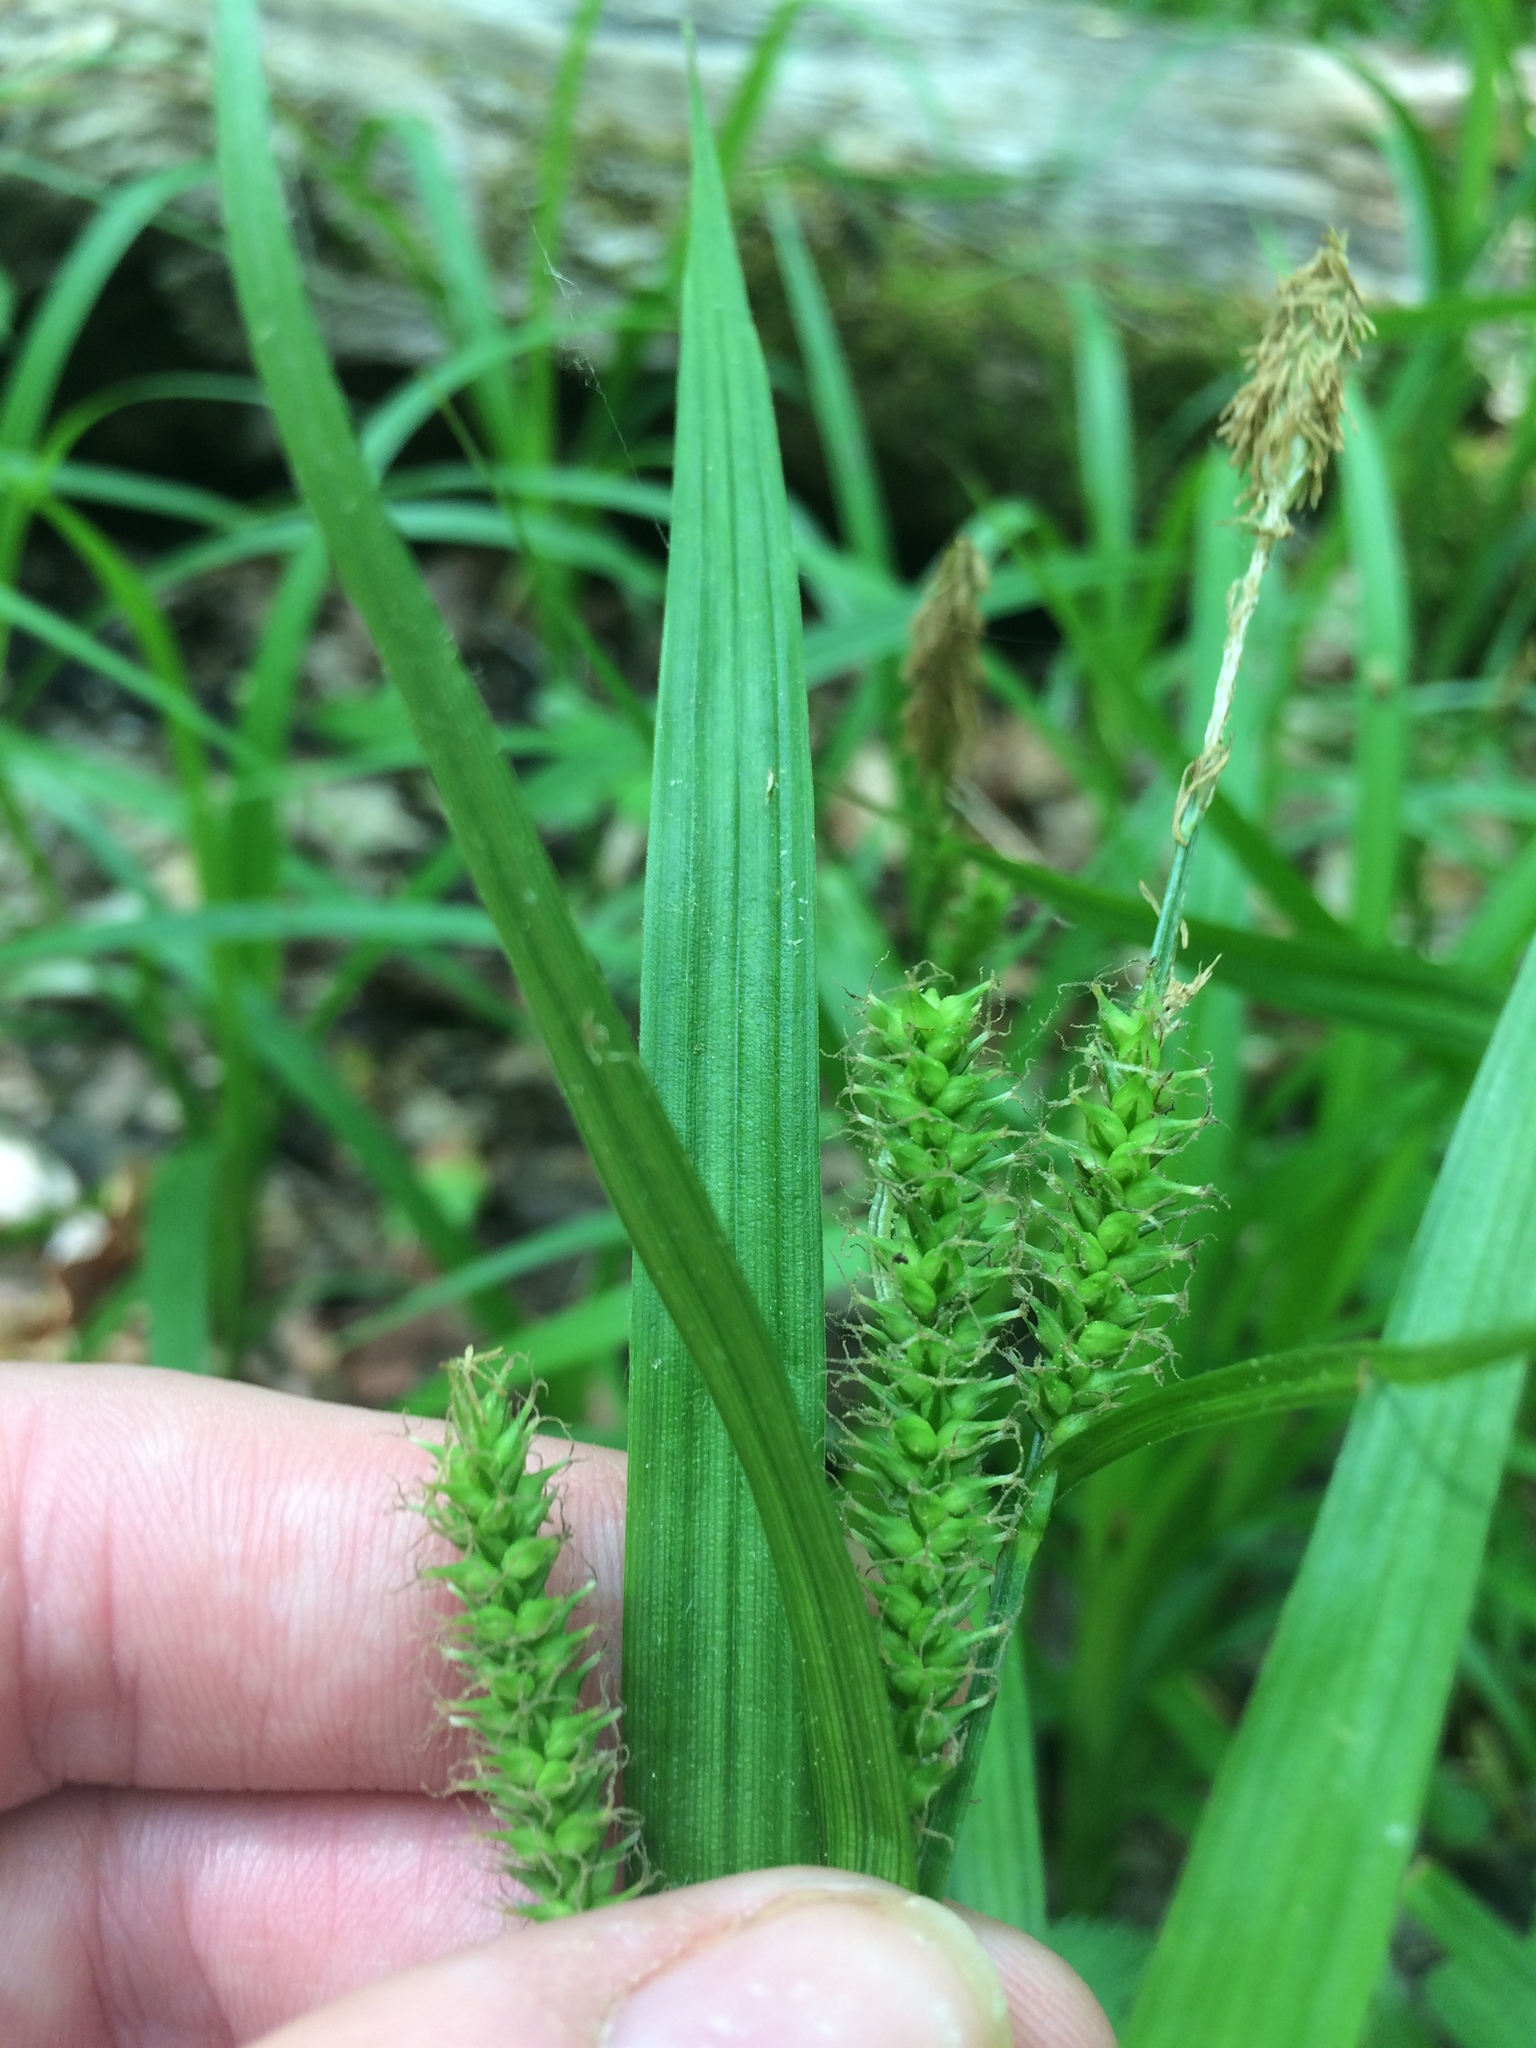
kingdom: Plantae
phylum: Tracheophyta
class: Liliopsida
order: Poales
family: Cyperaceae
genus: Carex
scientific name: Carex scabrata
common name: Eastern rough sedge
